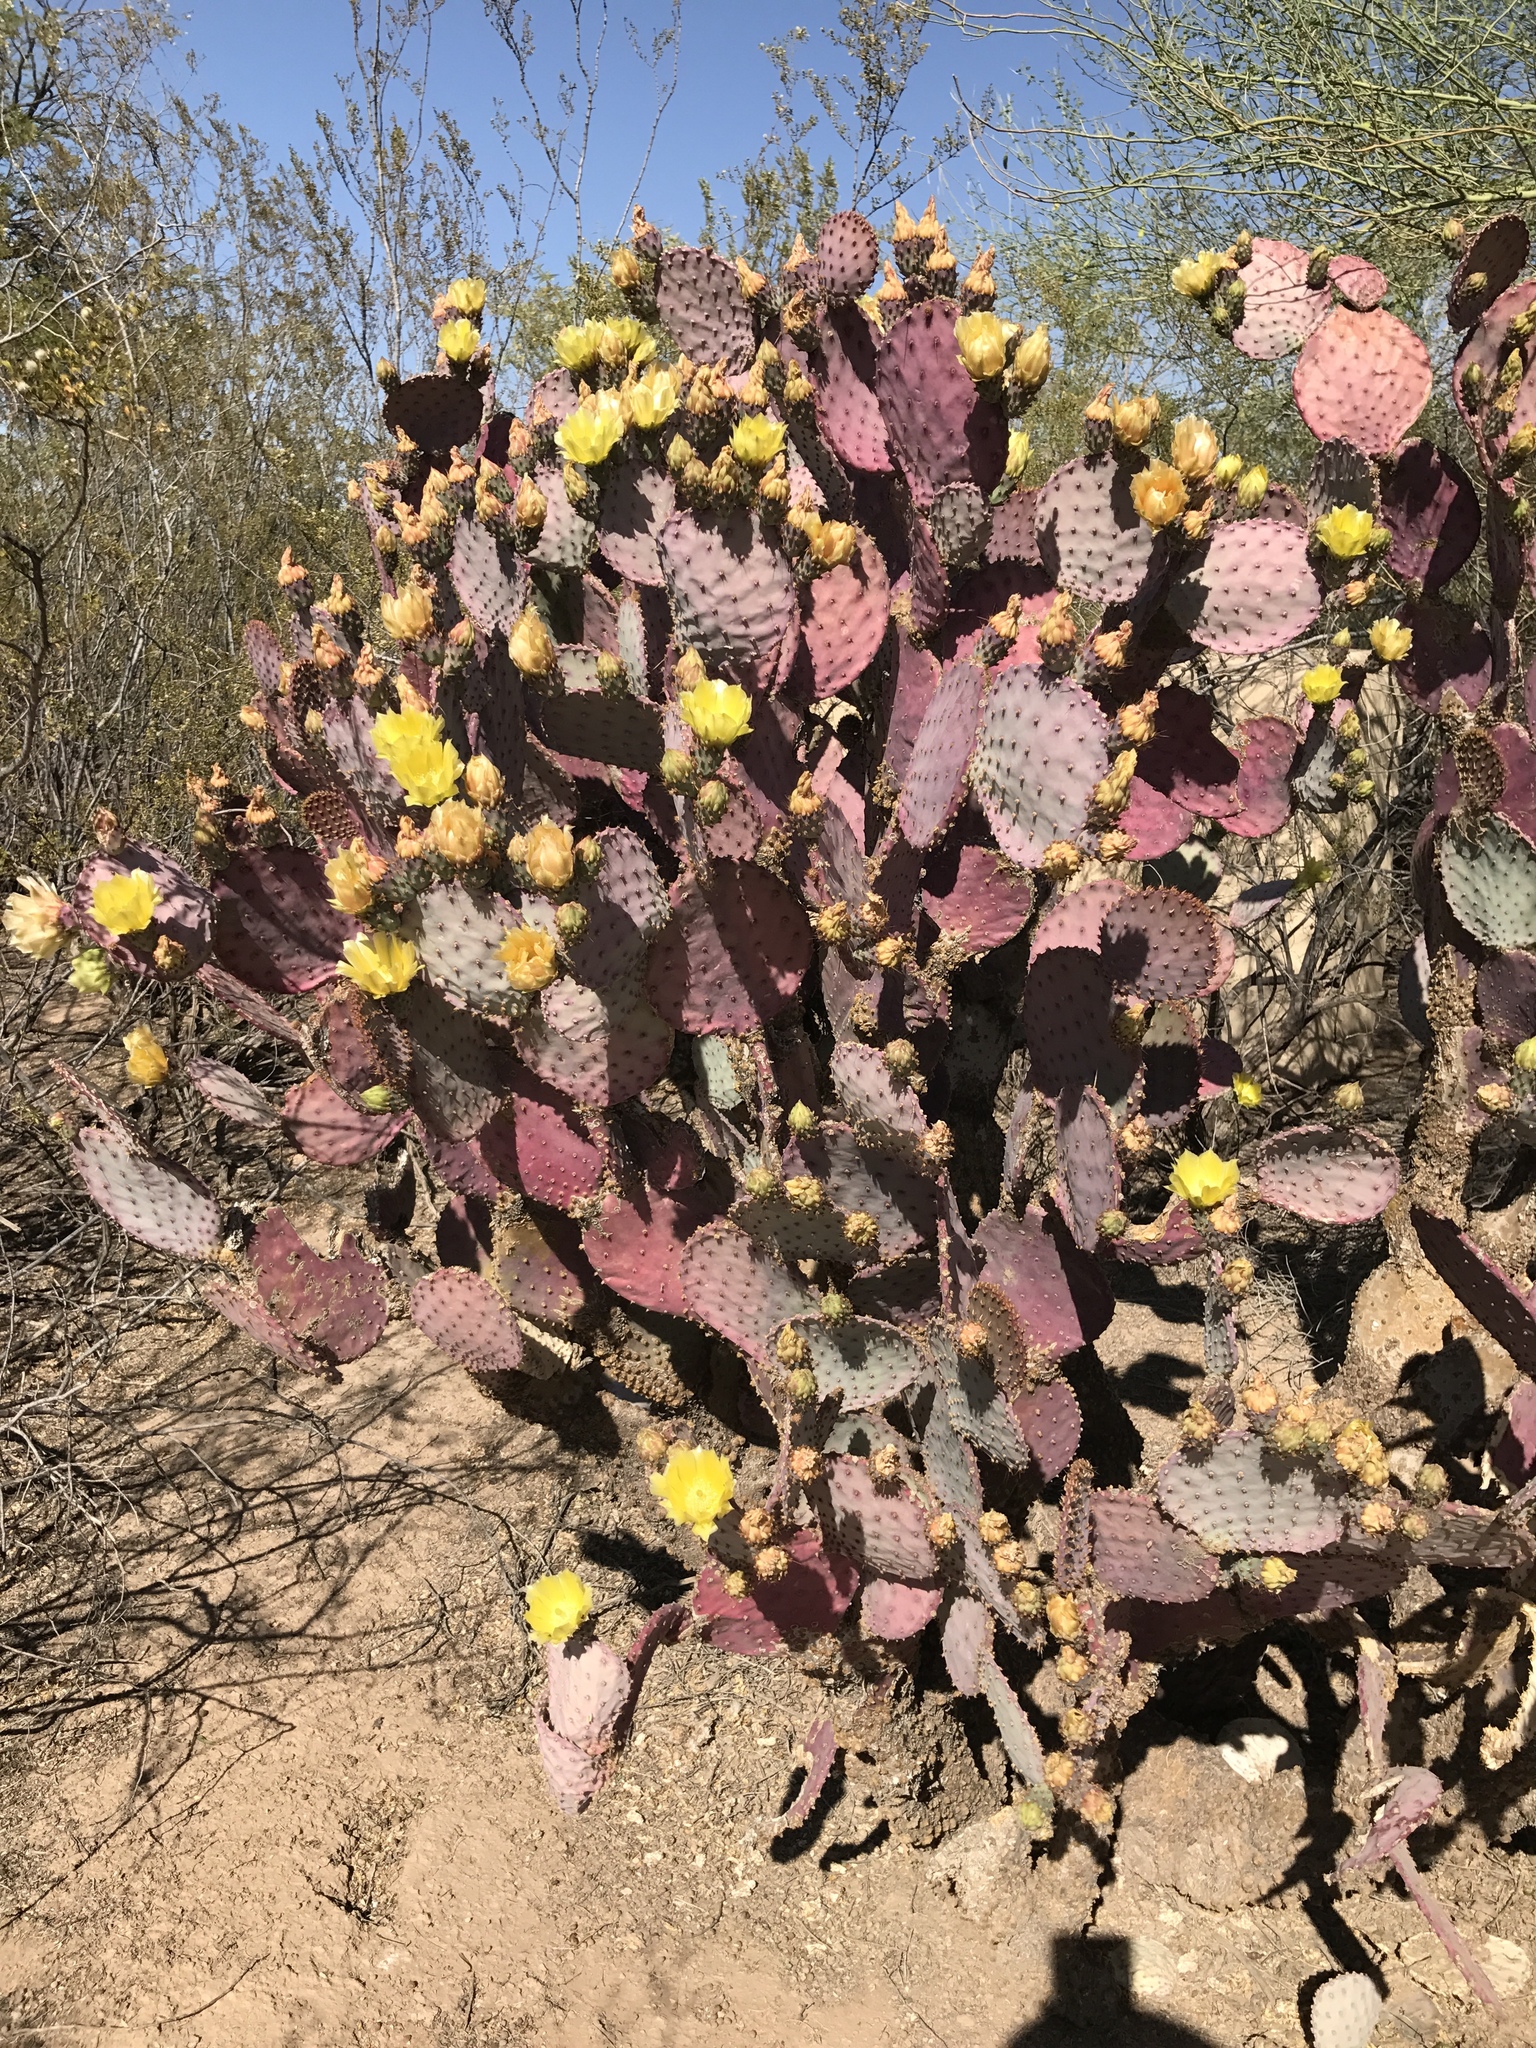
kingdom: Plantae
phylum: Tracheophyta
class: Magnoliopsida
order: Caryophyllales
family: Cactaceae
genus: Opuntia
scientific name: Opuntia gosseliniana
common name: Violet prickly-pear
